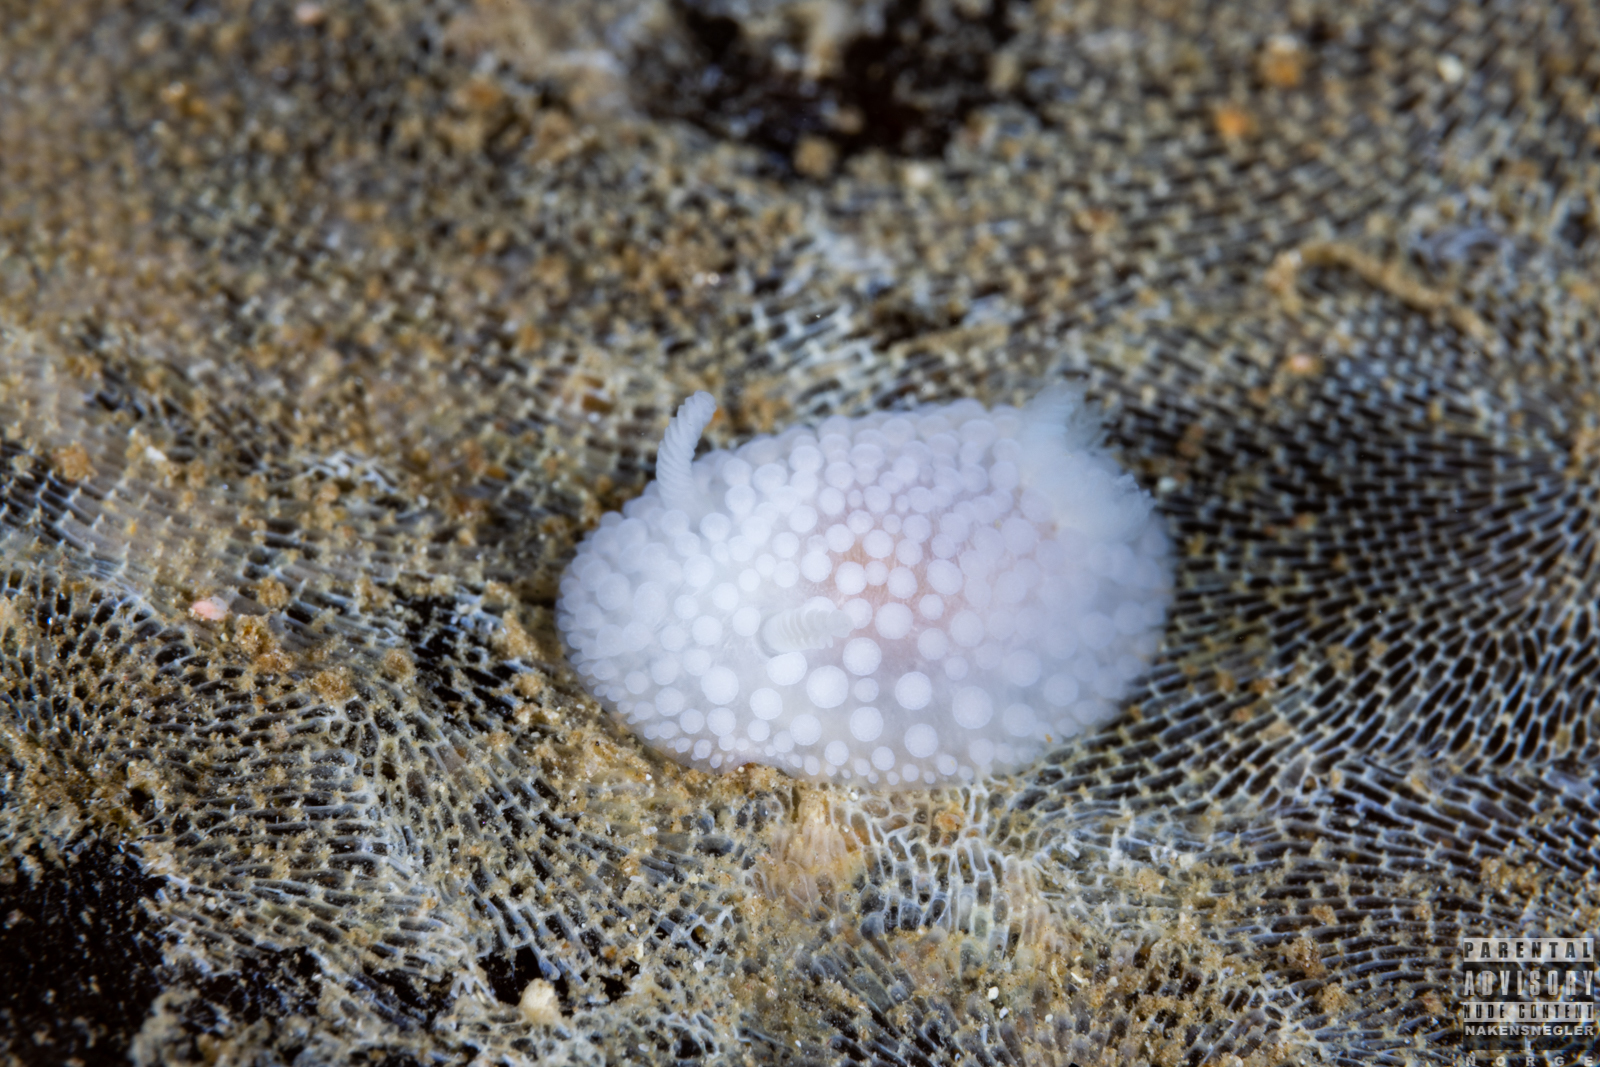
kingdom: Animalia
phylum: Mollusca
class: Gastropoda
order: Nudibranchia
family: Onchidorididae
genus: Onchidoris
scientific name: Onchidoris muricata
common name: Rough doris
